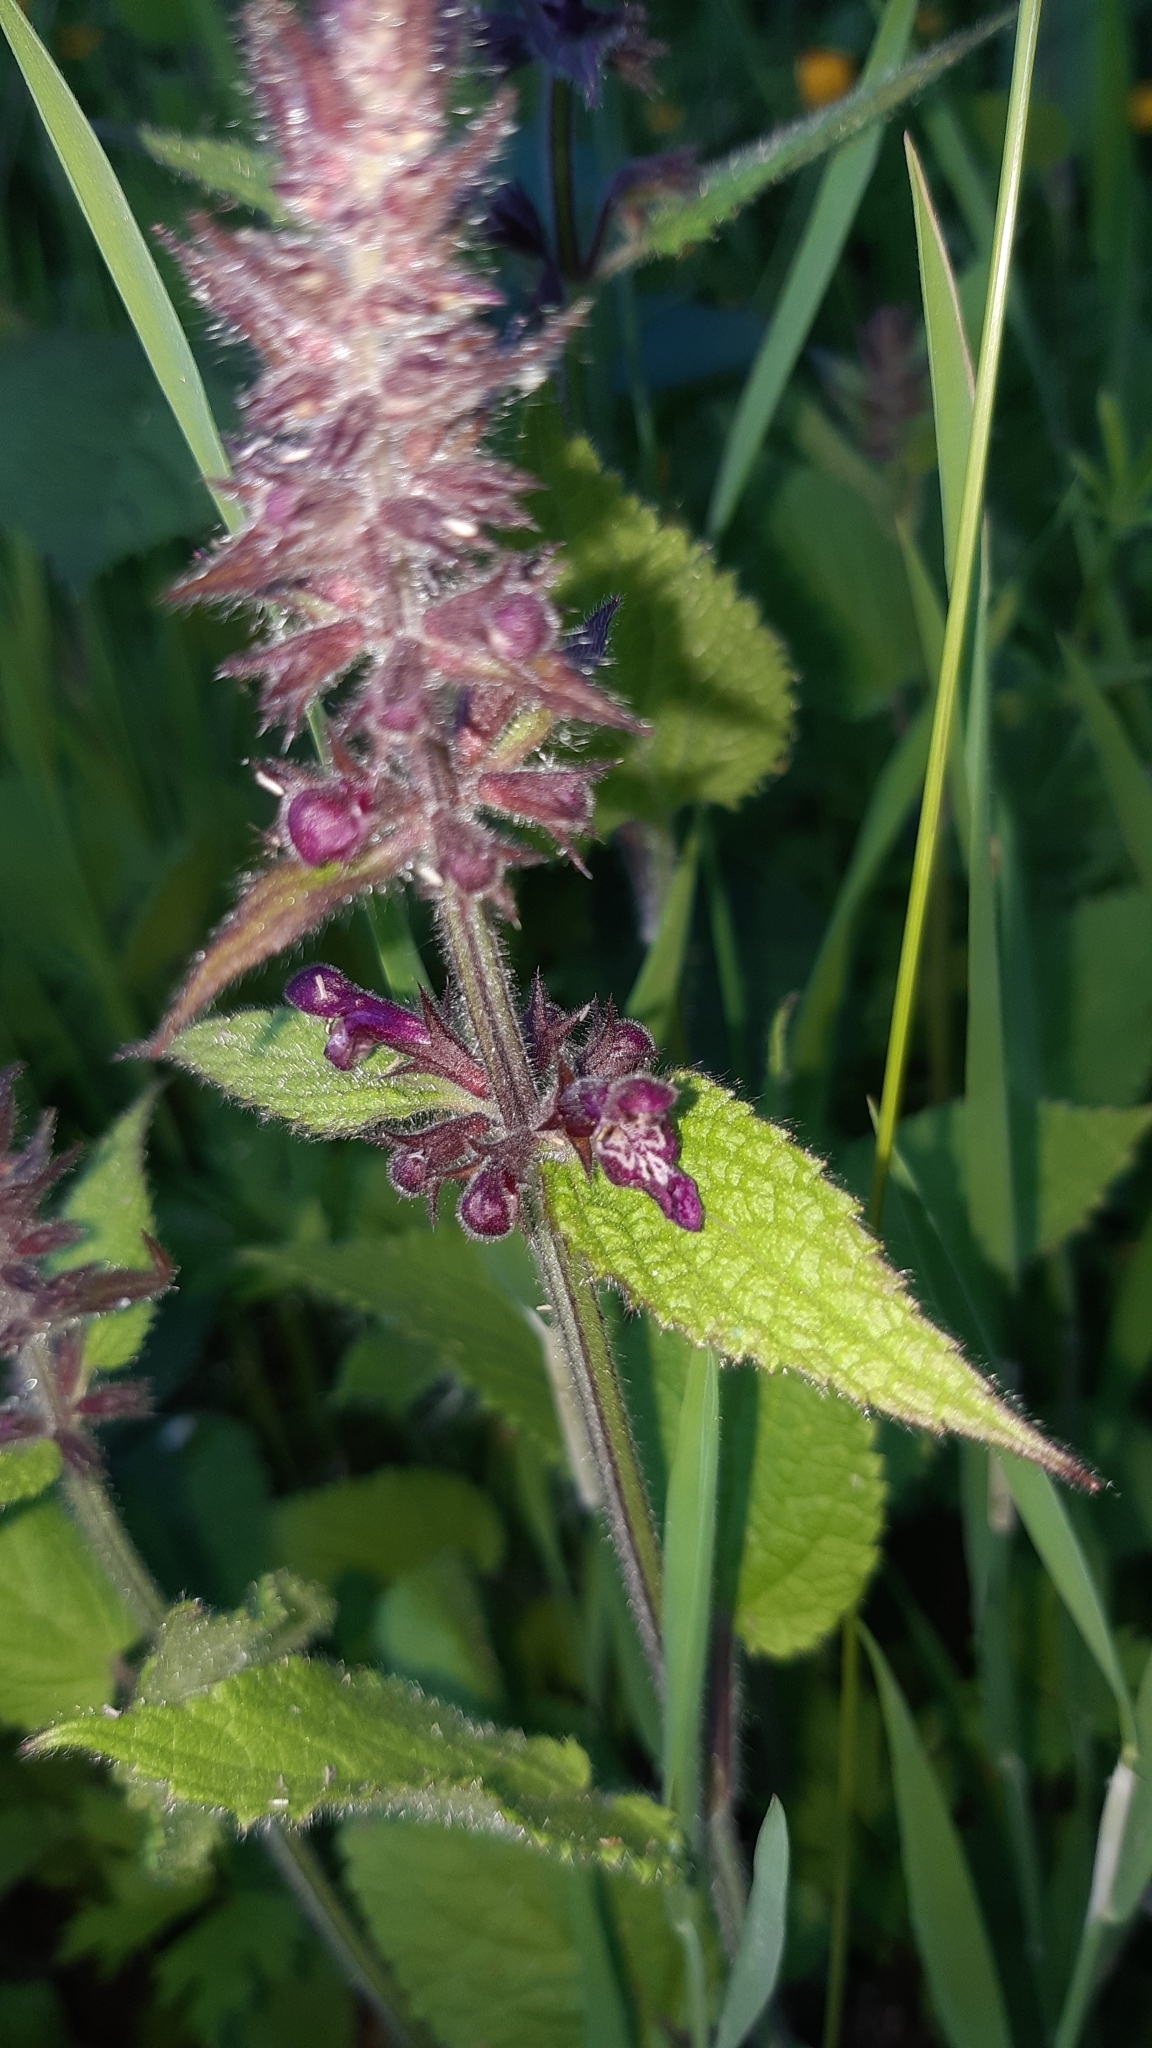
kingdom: Plantae
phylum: Tracheophyta
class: Magnoliopsida
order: Lamiales
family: Lamiaceae
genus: Stachys
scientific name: Stachys sylvatica
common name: Hedge woundwort
